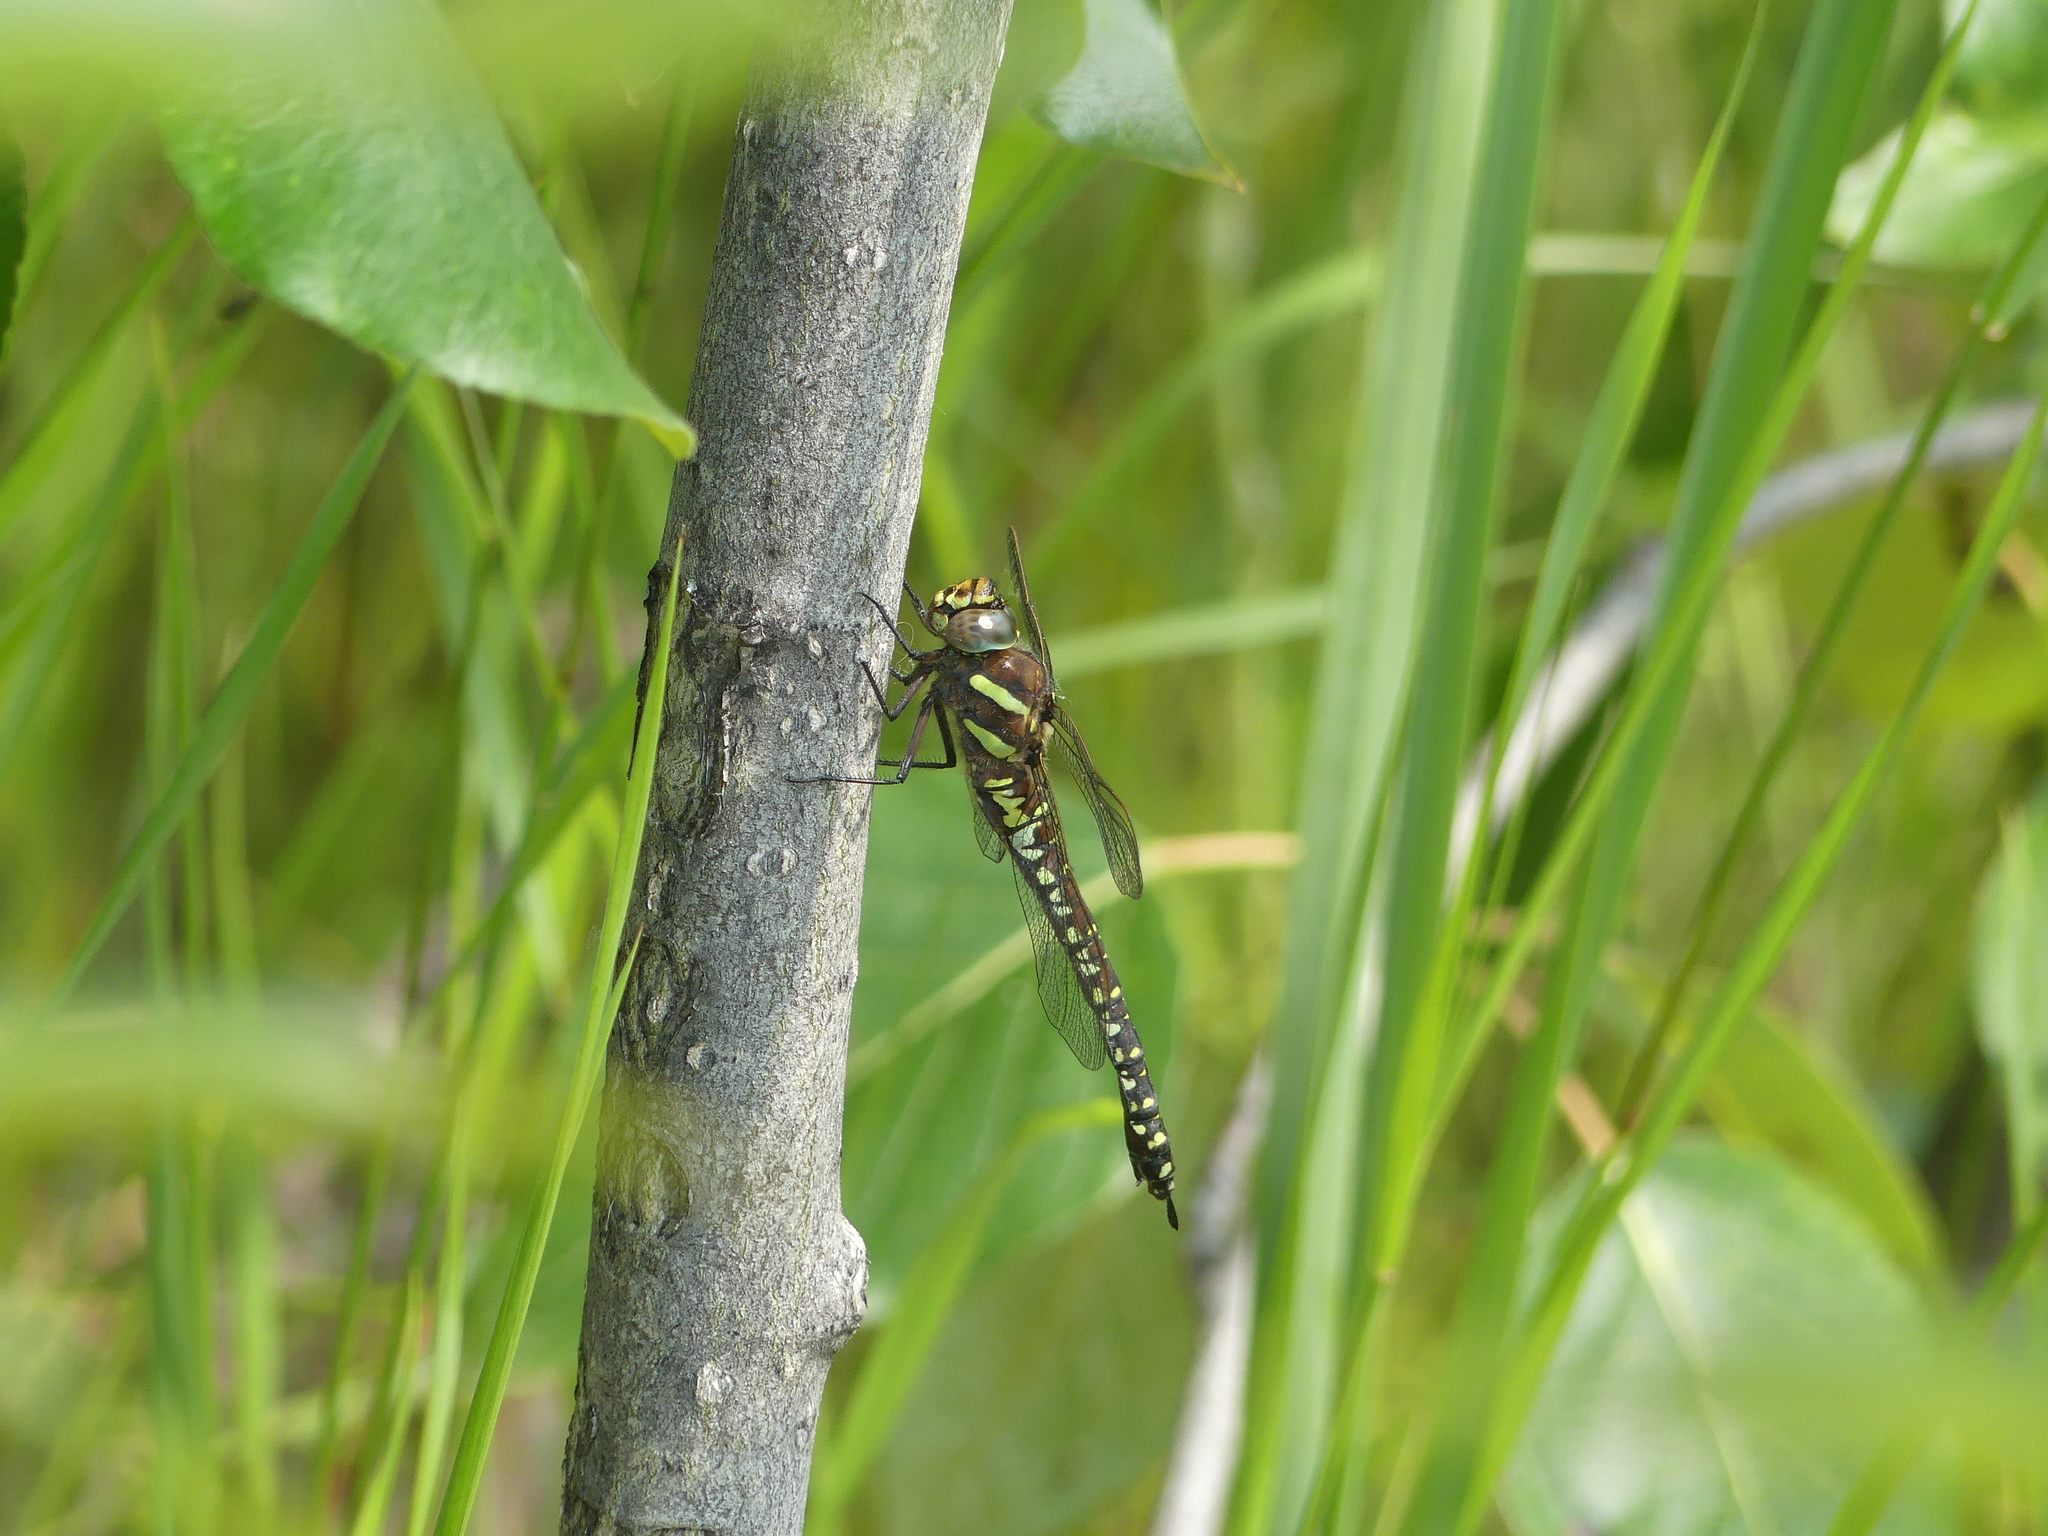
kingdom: Animalia
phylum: Arthropoda
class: Insecta
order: Odonata
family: Aeshnidae
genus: Aeshna
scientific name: Aeshna juncea
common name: Moorland hawker
